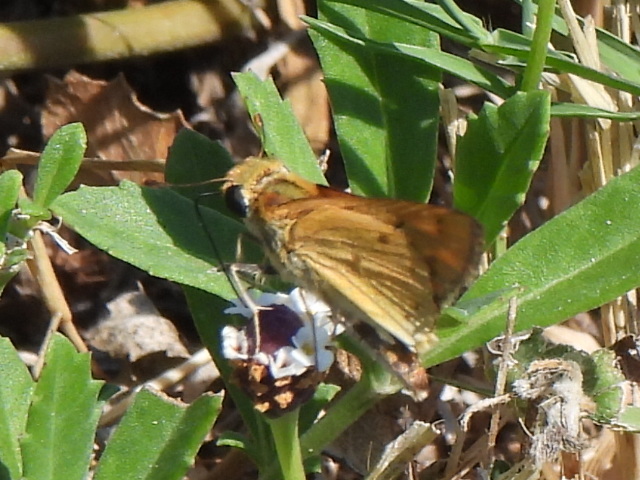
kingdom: Animalia
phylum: Arthropoda
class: Insecta
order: Lepidoptera
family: Hesperiidae
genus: Hylephila
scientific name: Hylephila phyleus
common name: Fiery skipper
